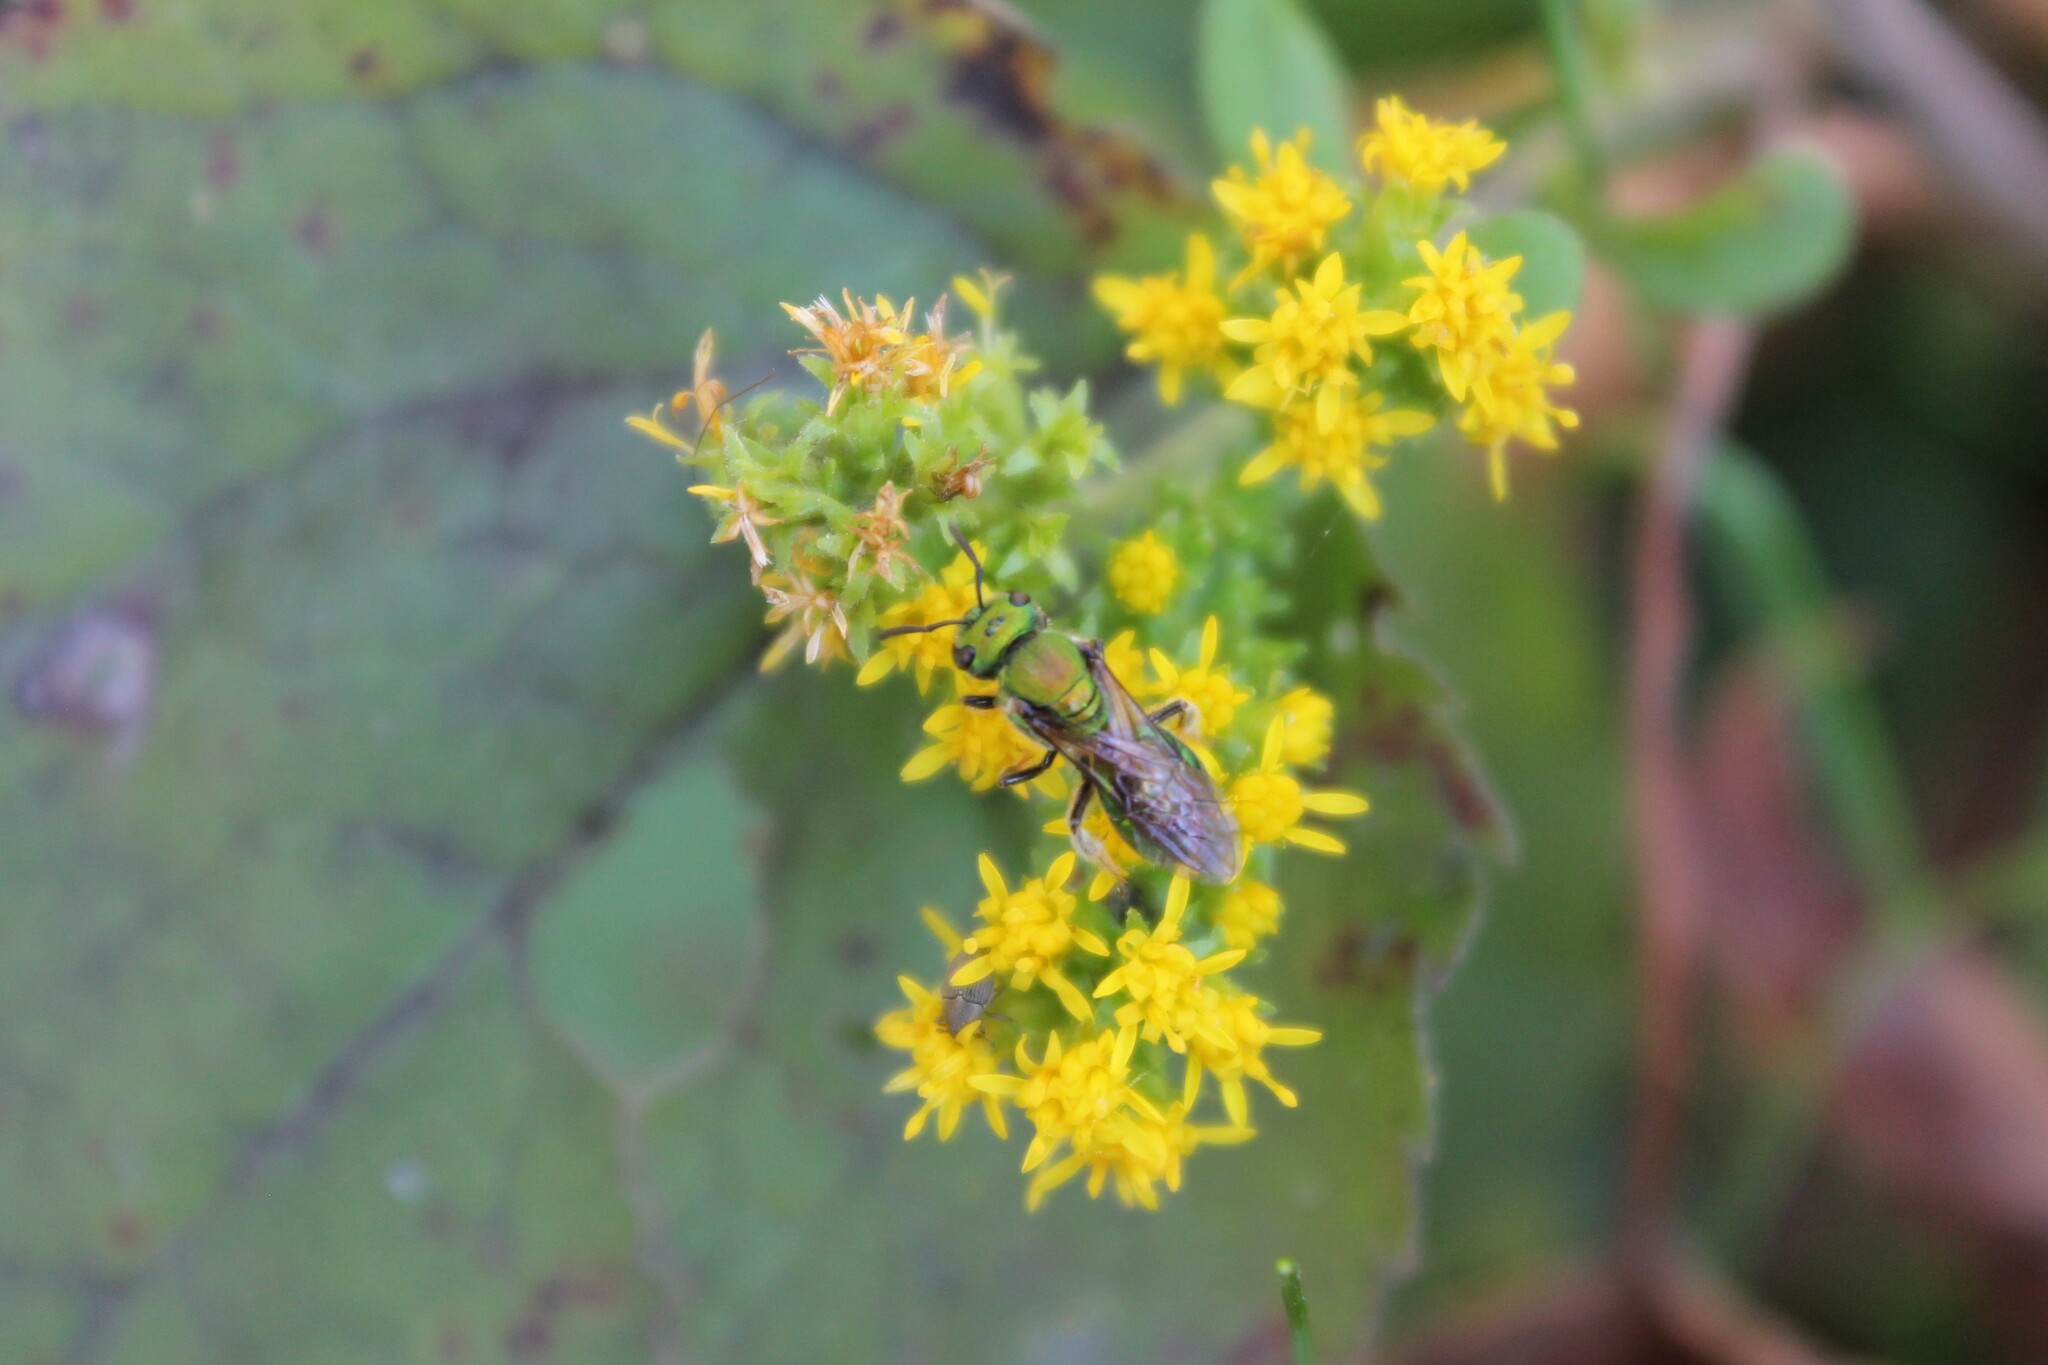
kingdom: Animalia
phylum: Arthropoda
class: Insecta
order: Hymenoptera
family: Halictidae
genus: Augochlora
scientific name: Augochlora pura
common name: Pure green sweat bee
